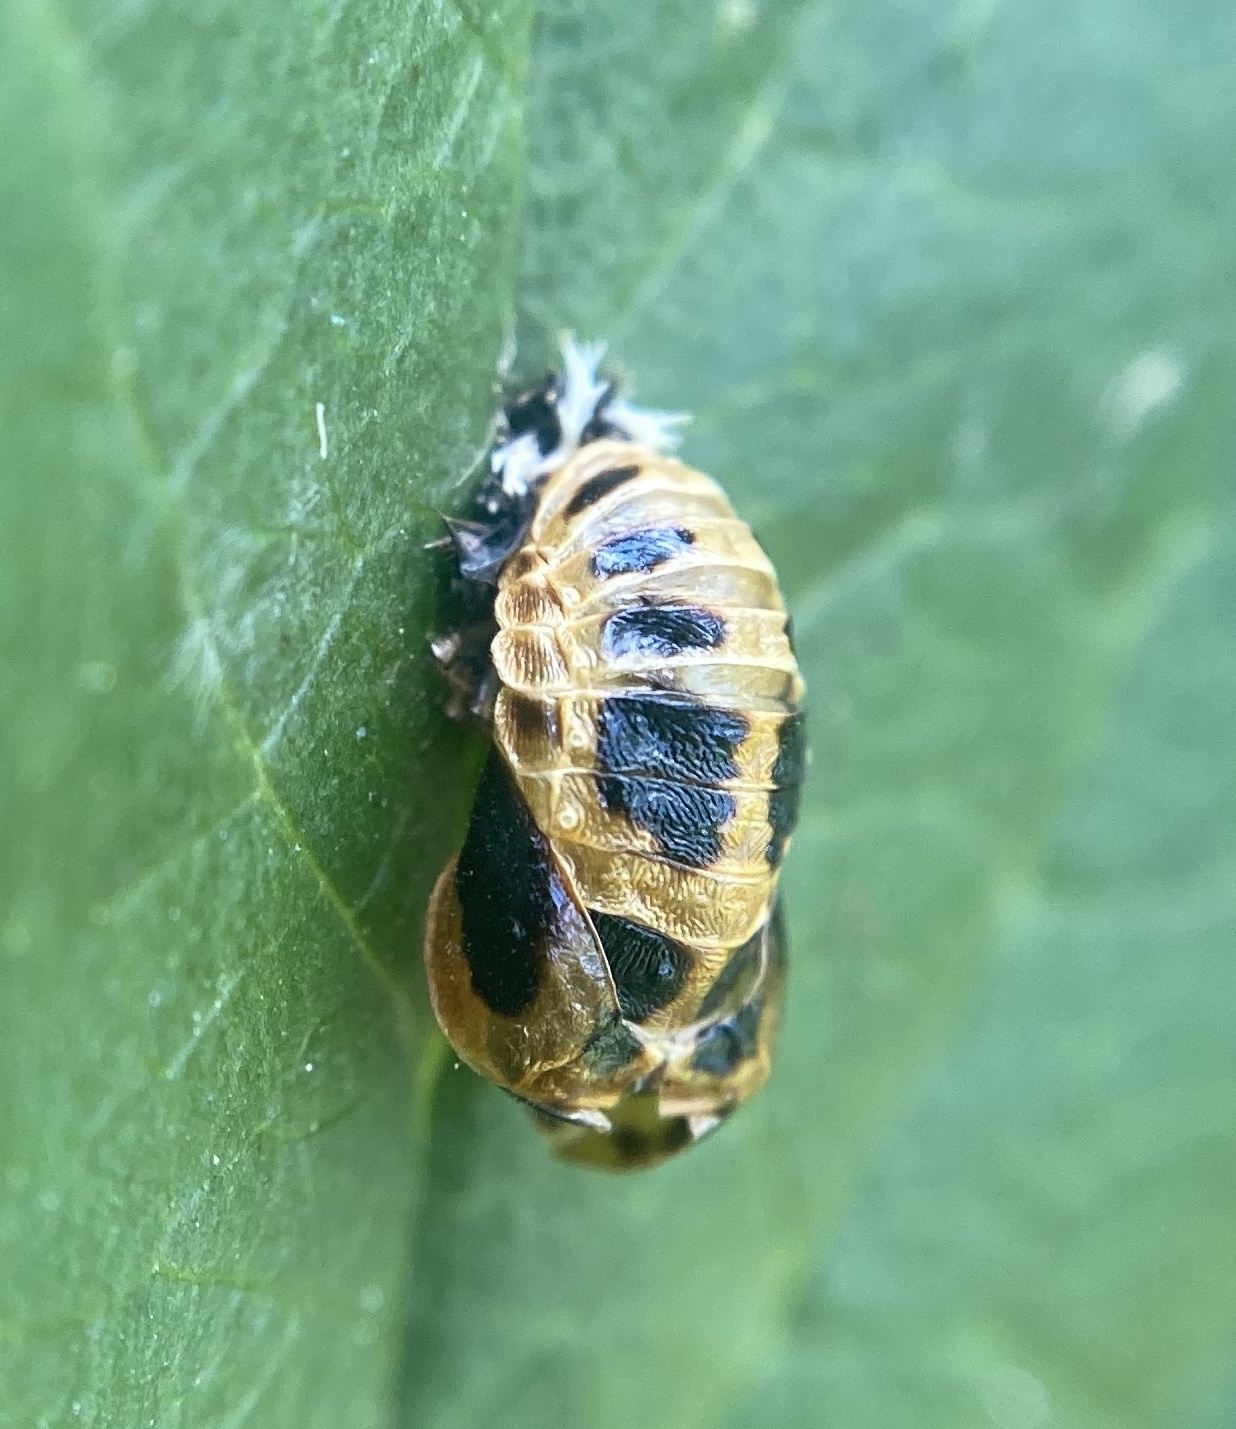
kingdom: Animalia
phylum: Arthropoda
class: Insecta
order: Coleoptera
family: Coccinellidae
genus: Harmonia
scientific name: Harmonia axyridis
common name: Harlequin ladybird
